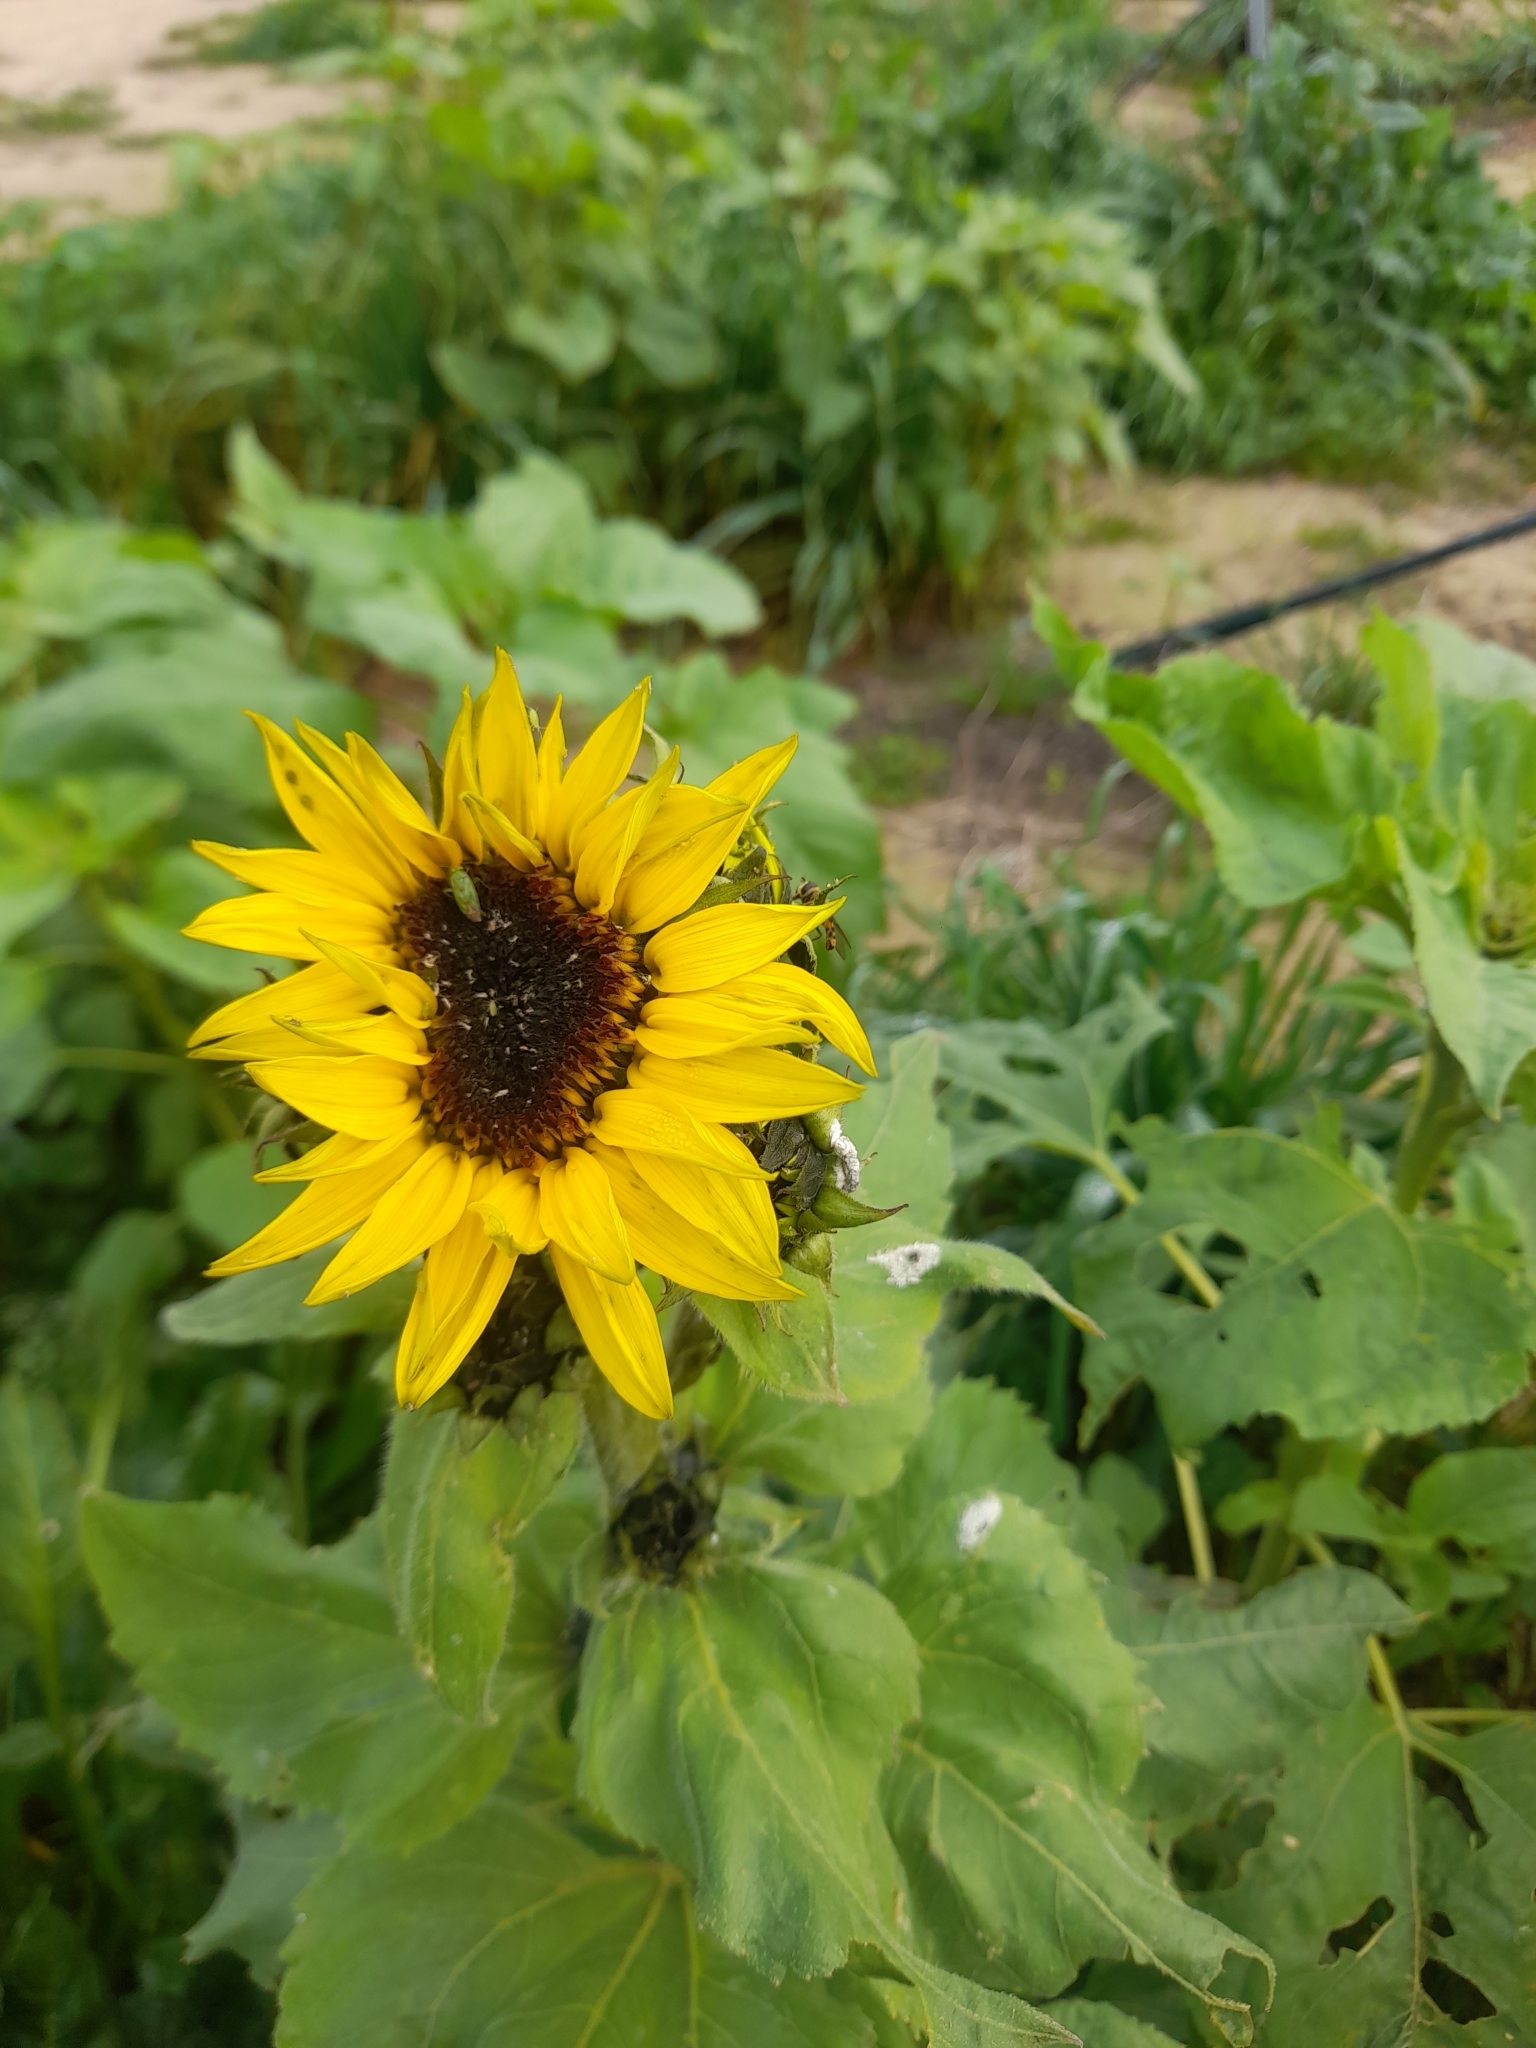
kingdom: Plantae
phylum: Tracheophyta
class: Magnoliopsida
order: Asterales
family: Asteraceae
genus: Helianthus
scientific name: Helianthus annuus
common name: Sunflower
